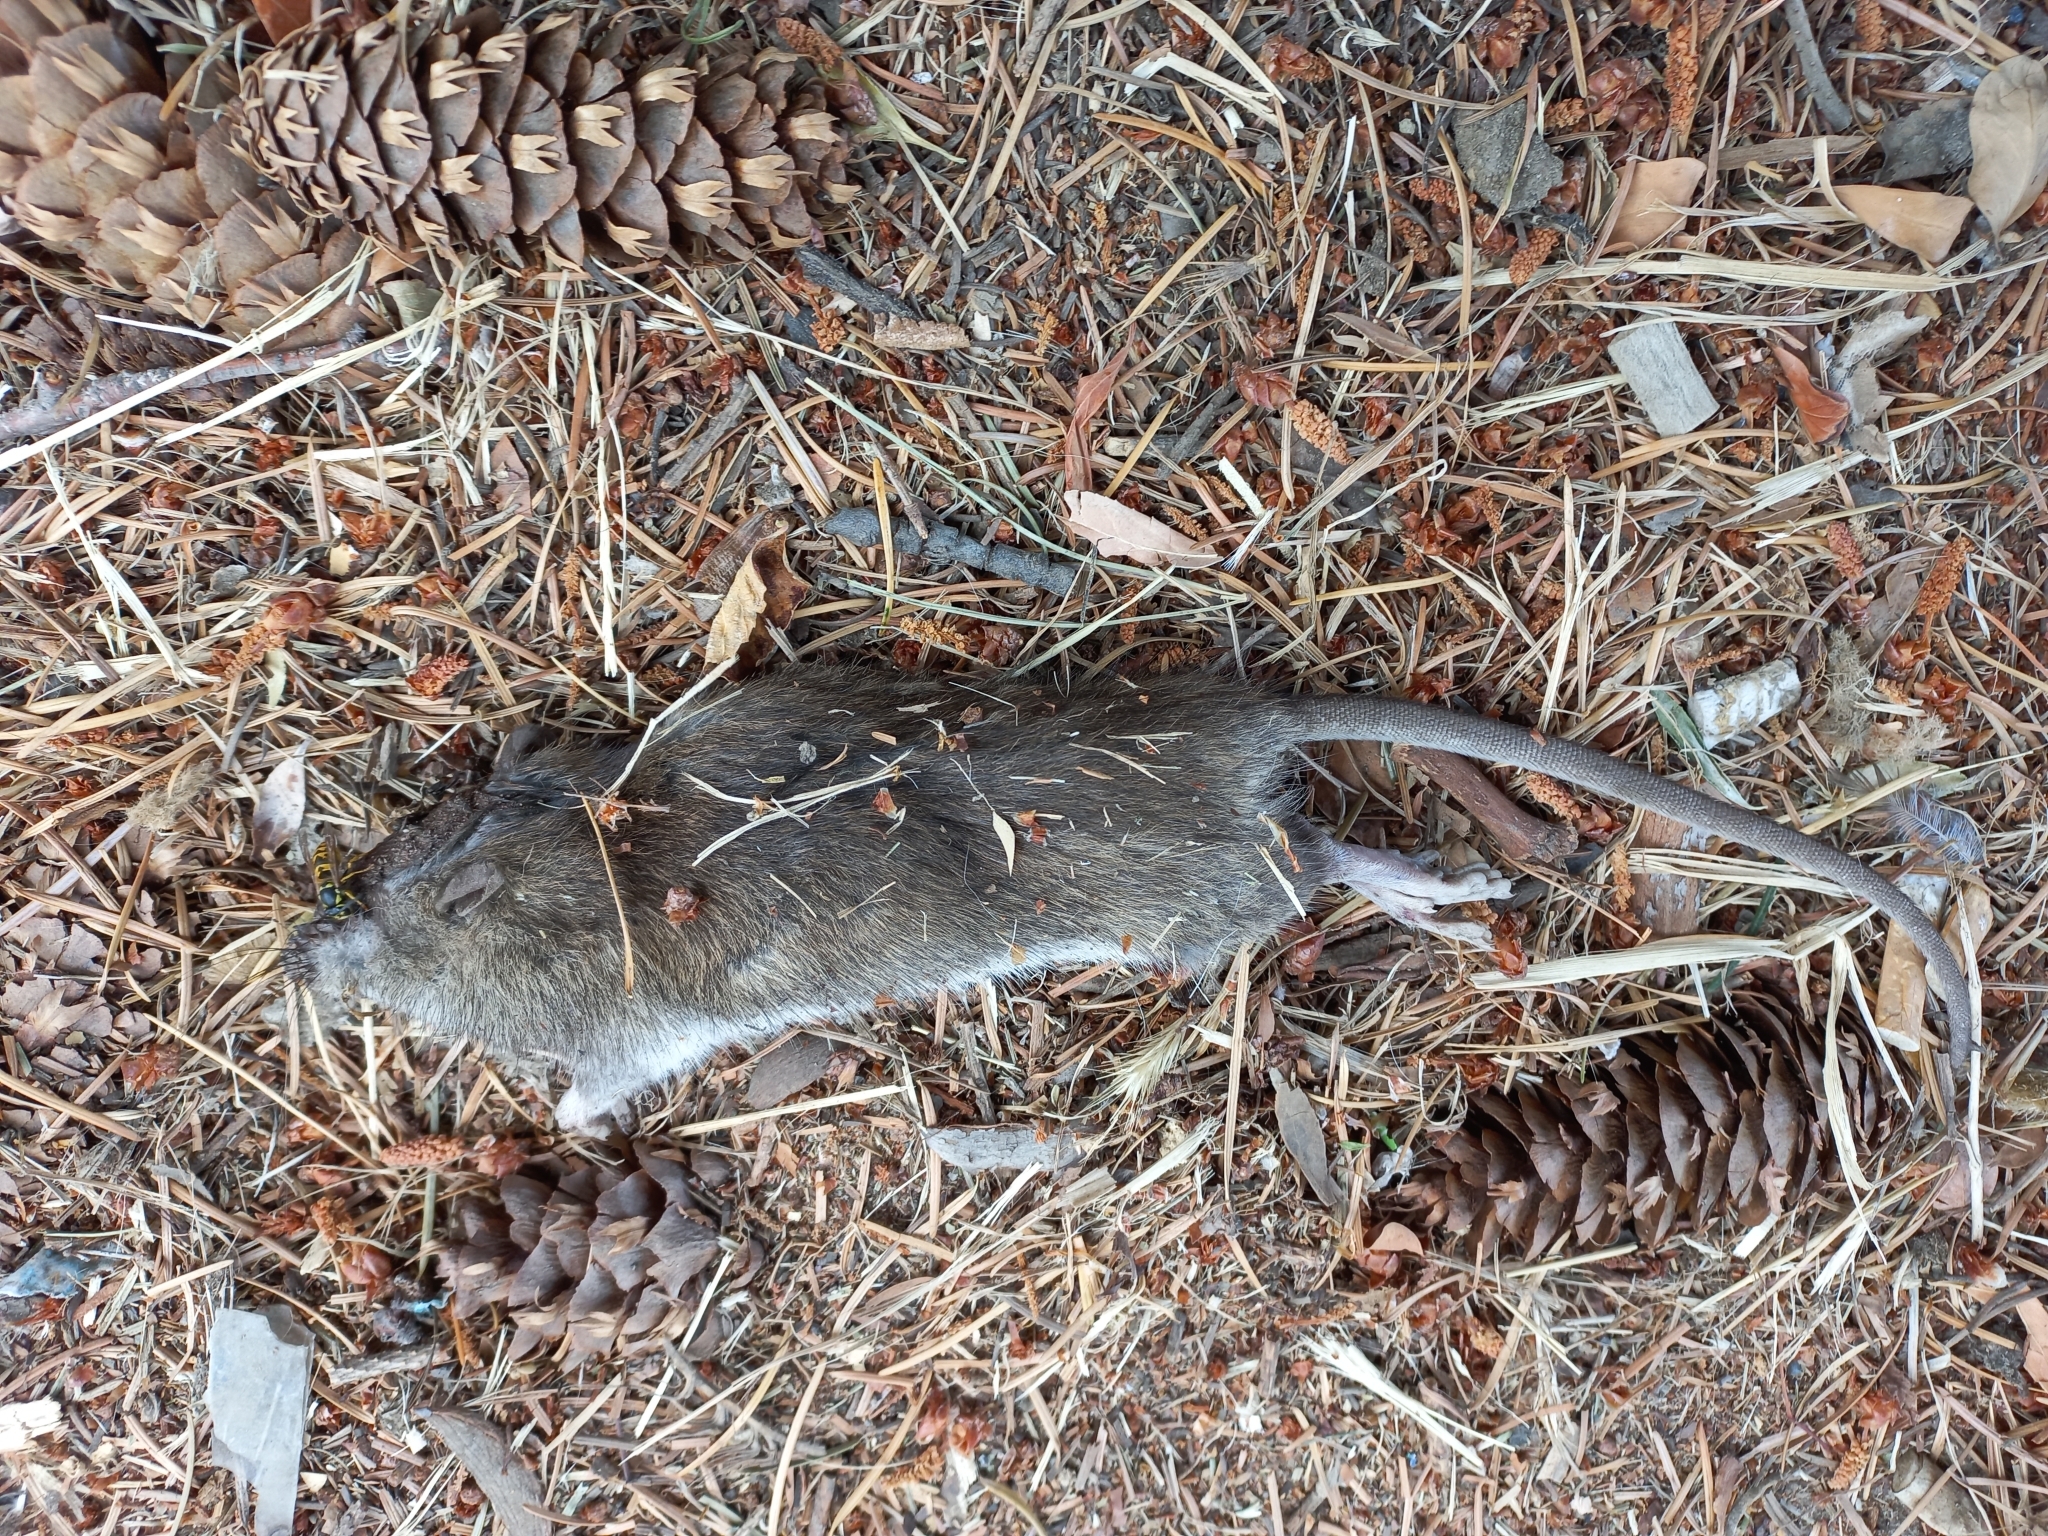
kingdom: Animalia
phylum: Chordata
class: Mammalia
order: Rodentia
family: Muridae
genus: Rattus
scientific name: Rattus norvegicus
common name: Brown rat
